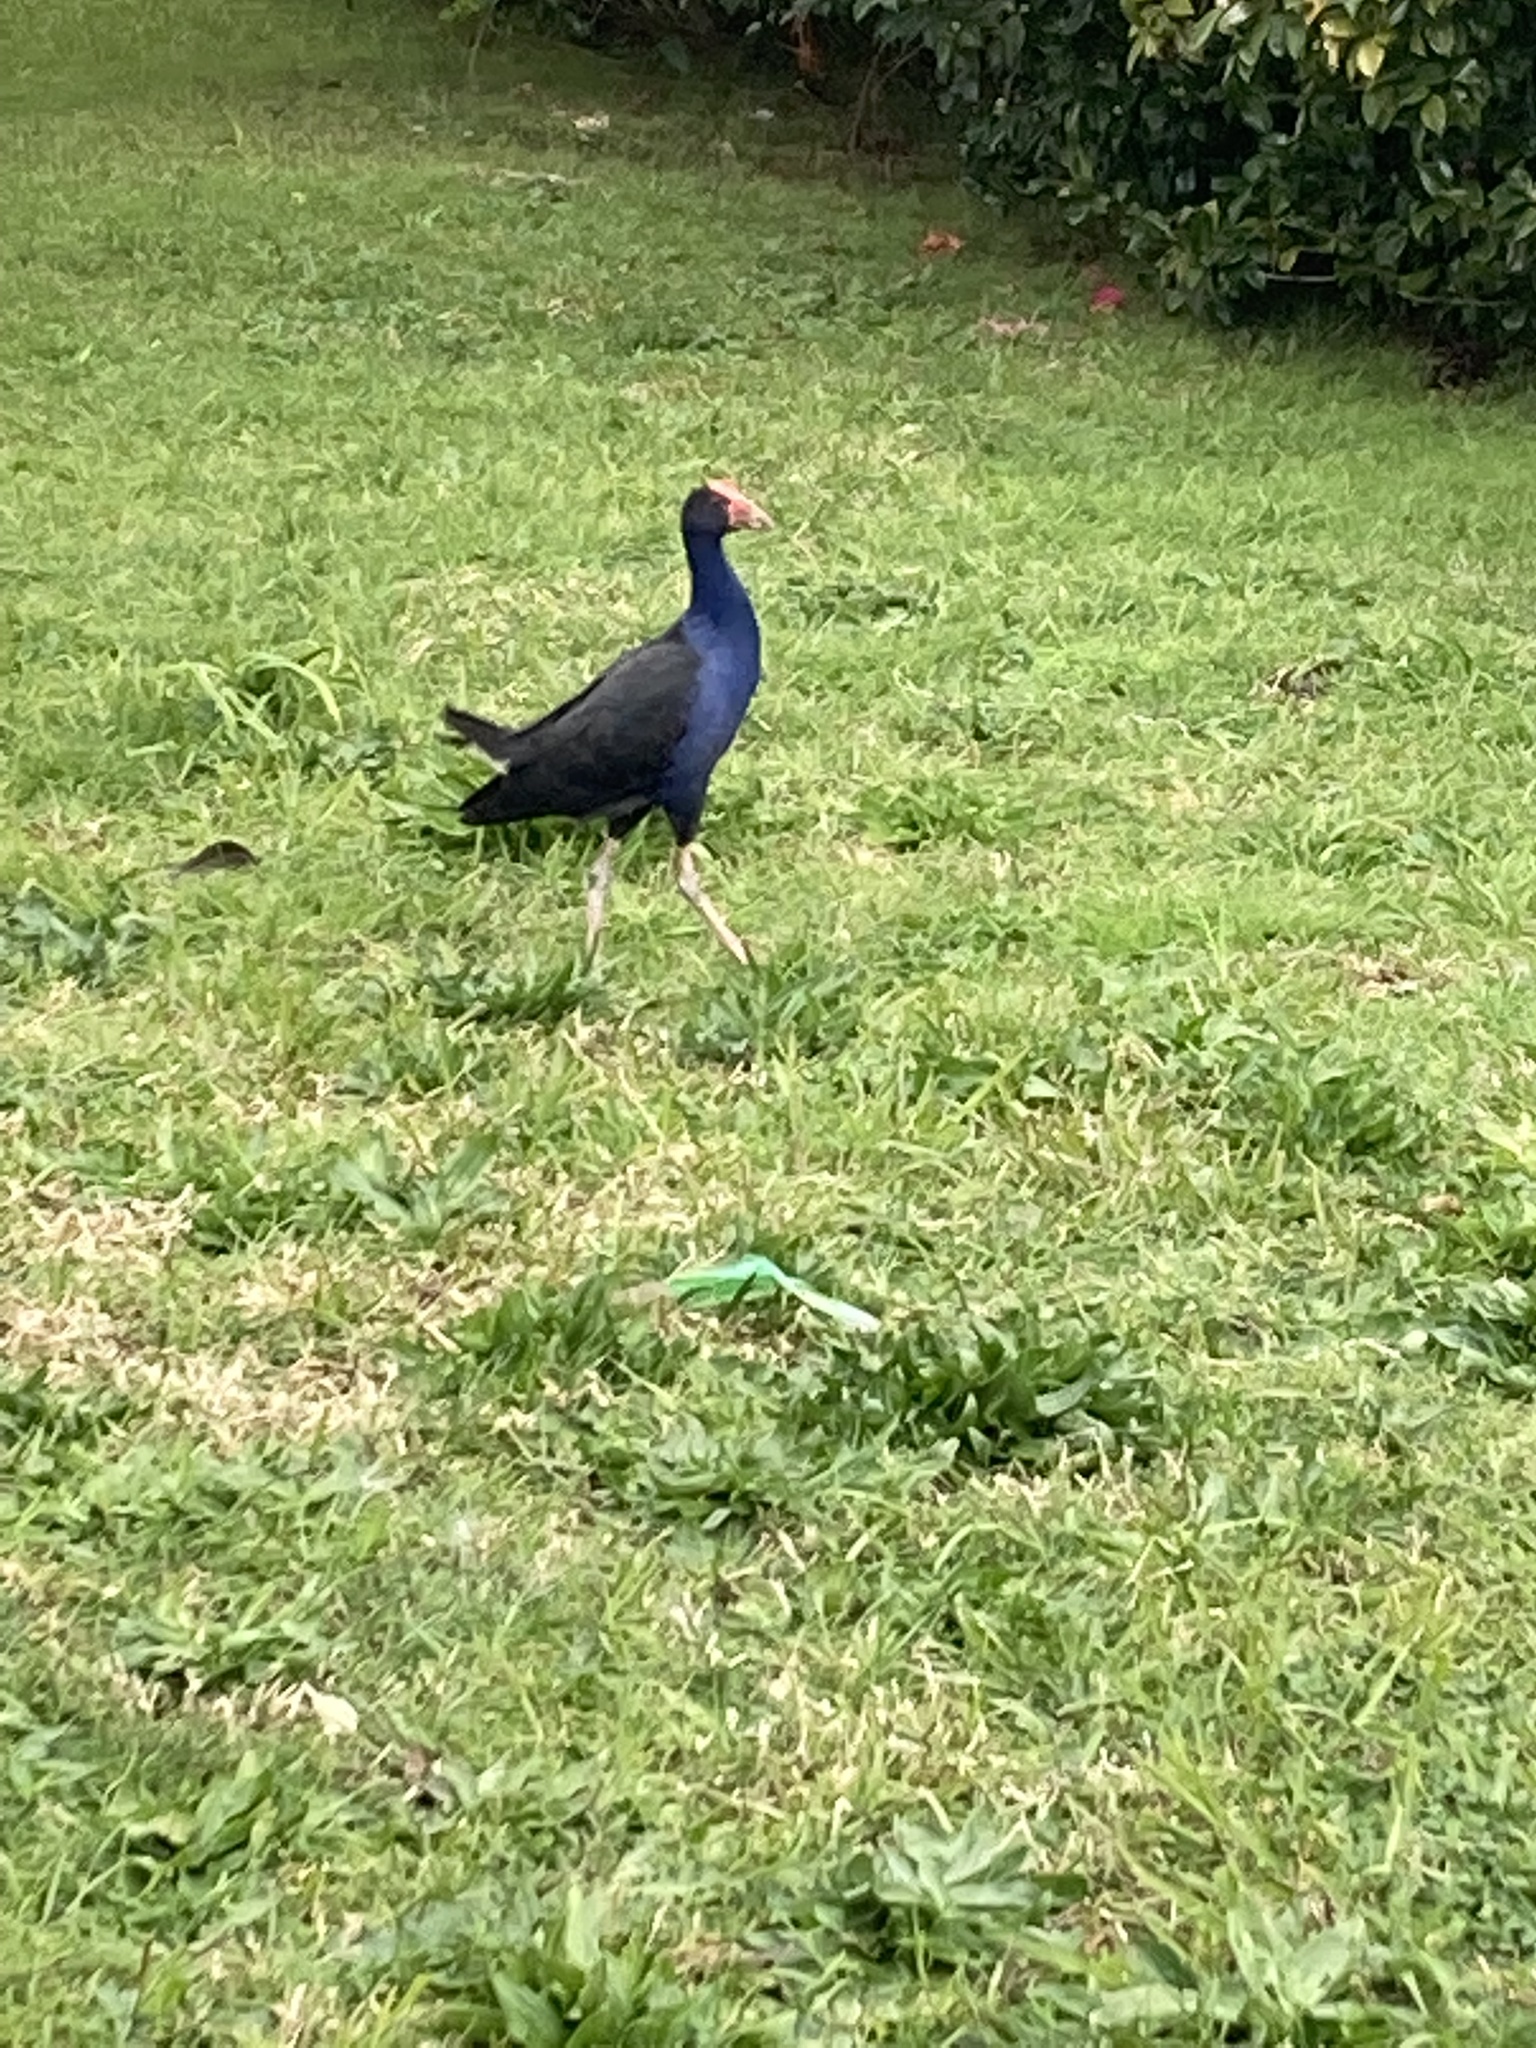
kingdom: Animalia
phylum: Chordata
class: Aves
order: Gruiformes
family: Rallidae
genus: Porphyrio
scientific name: Porphyrio melanotus
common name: Australasian swamphen
